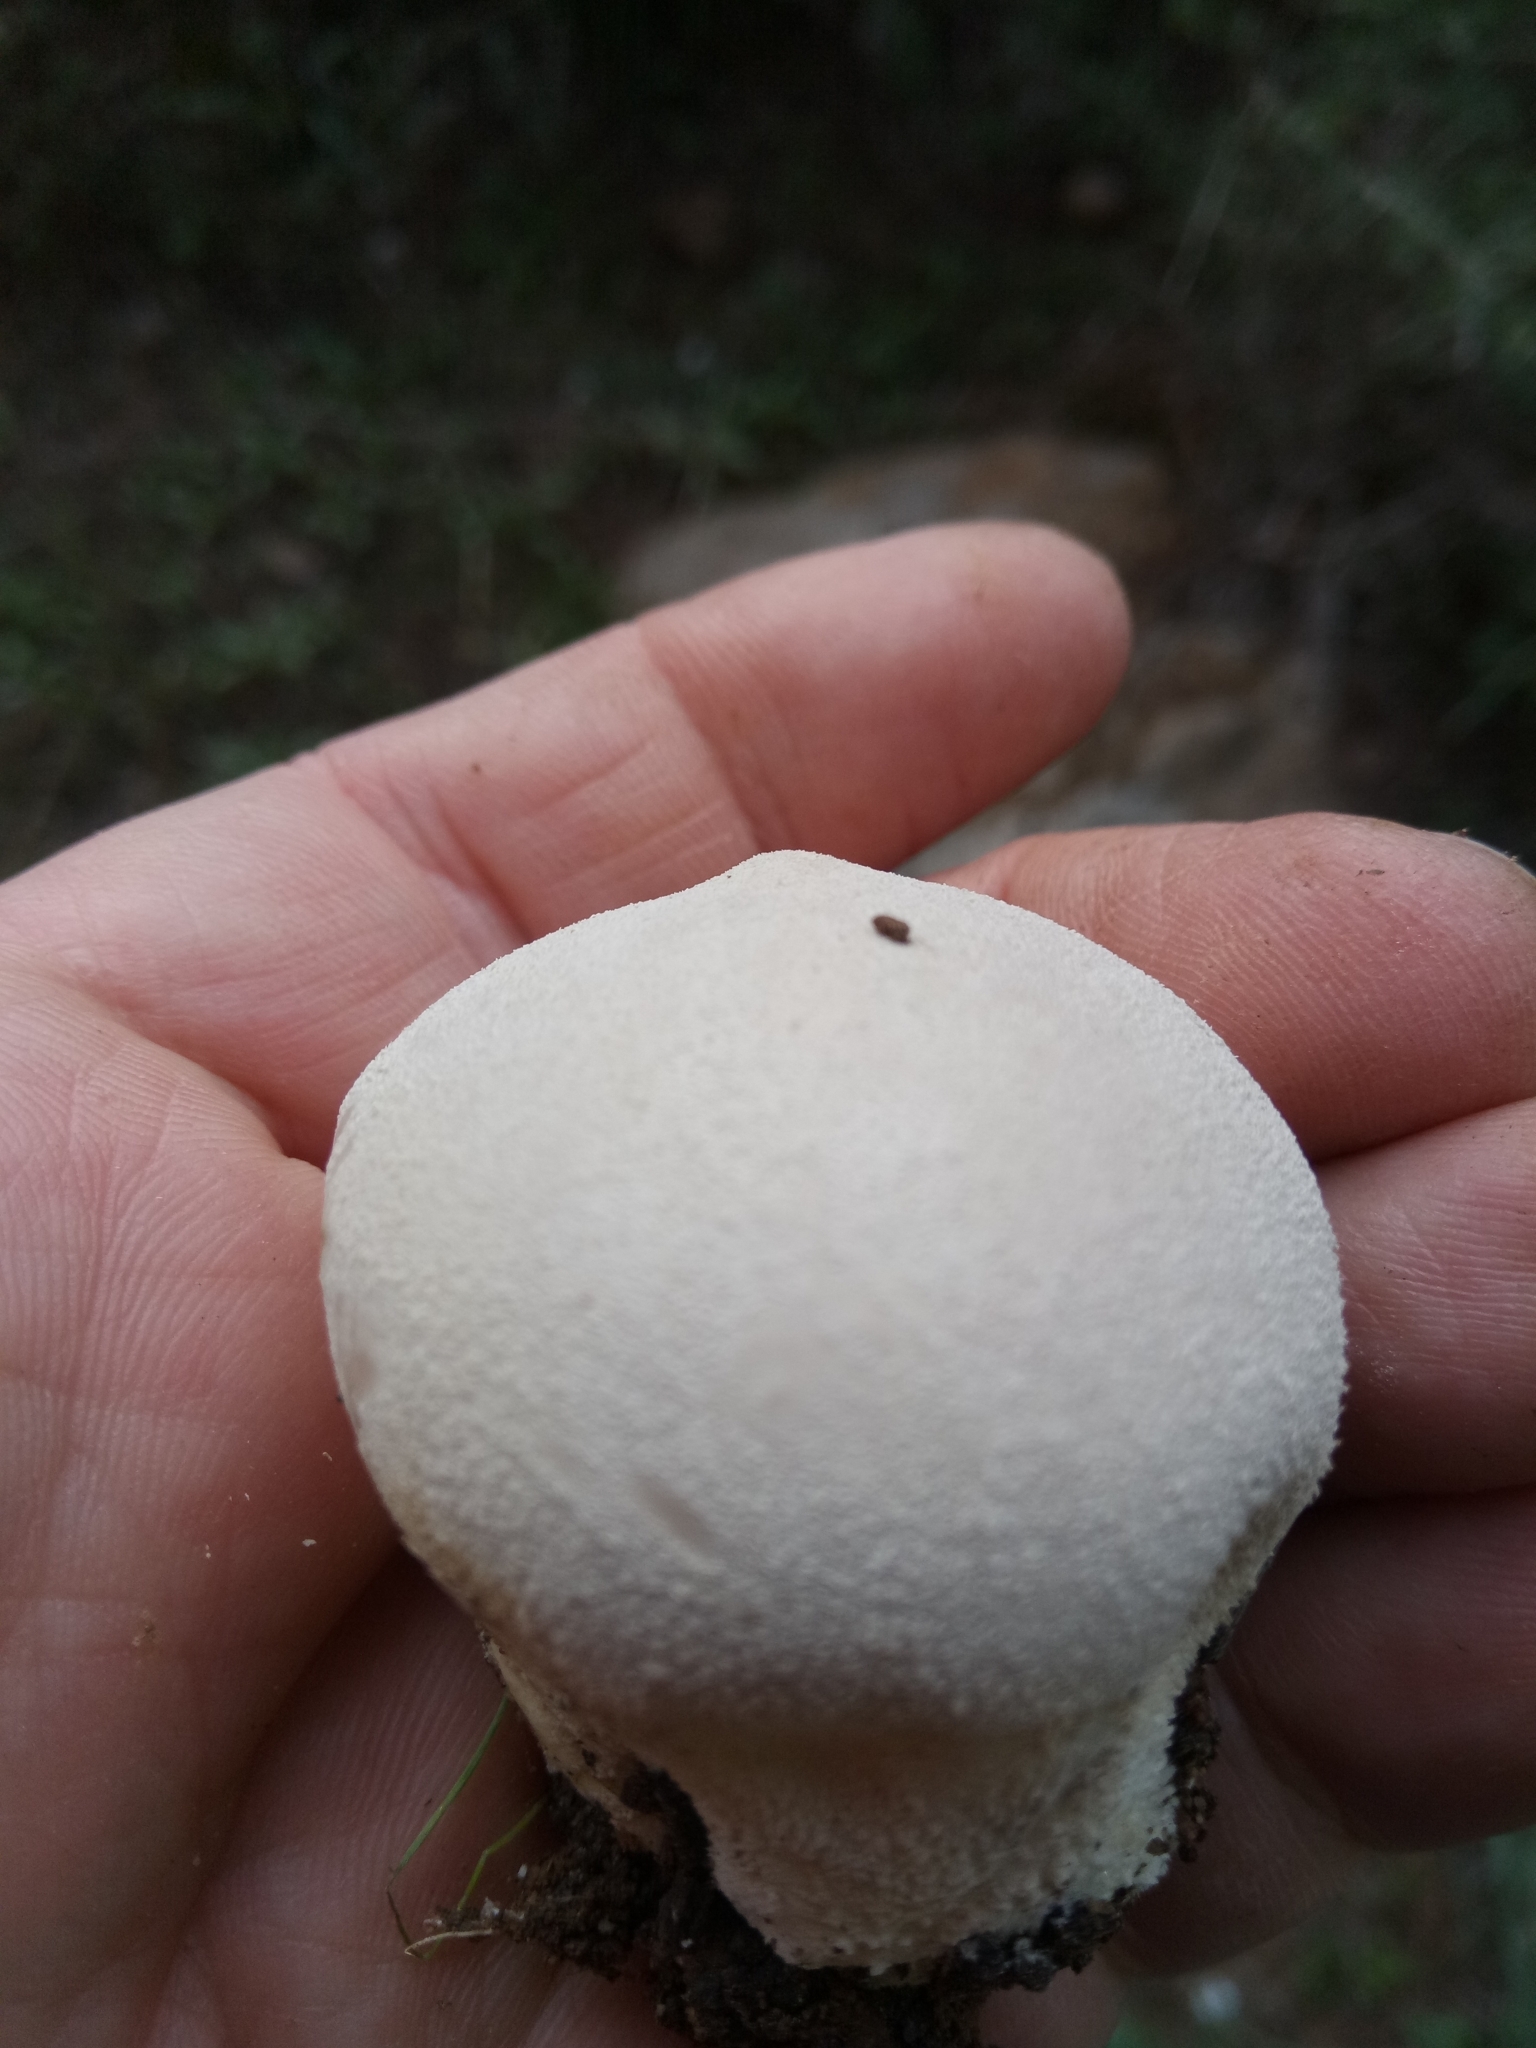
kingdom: Fungi
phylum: Basidiomycota
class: Agaricomycetes
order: Agaricales
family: Lycoperdaceae
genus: Lycoperdon
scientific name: Lycoperdon pratense
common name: Meadow puffball
